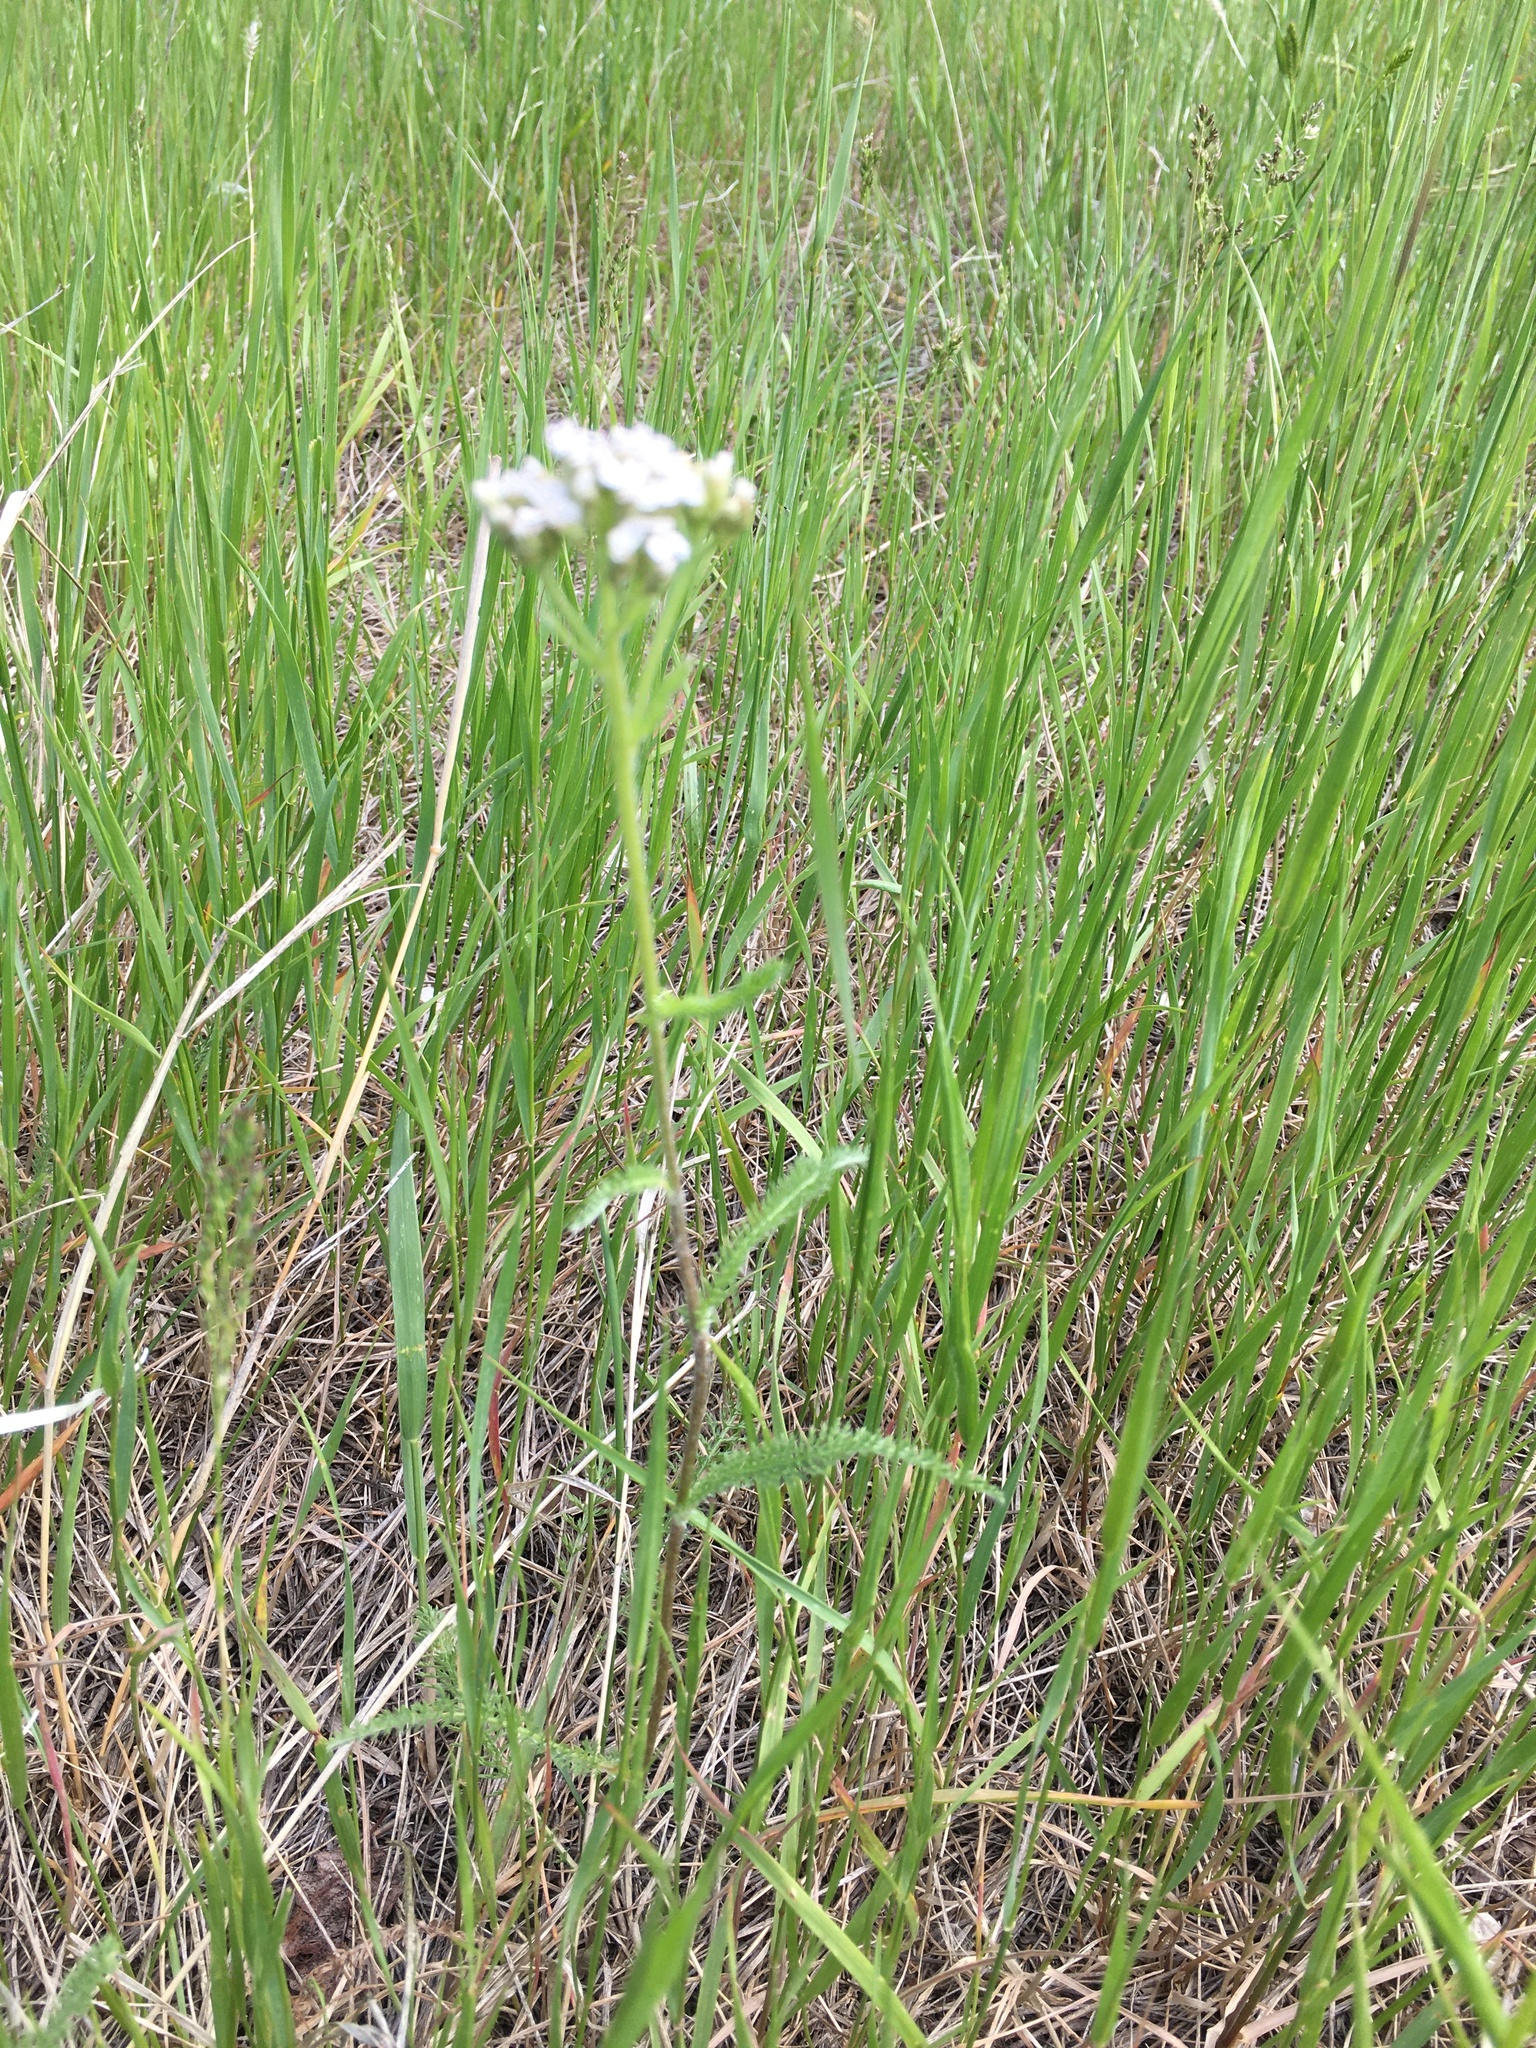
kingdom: Plantae
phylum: Tracheophyta
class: Magnoliopsida
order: Asterales
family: Asteraceae
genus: Achillea
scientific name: Achillea millefolium
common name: Yarrow
